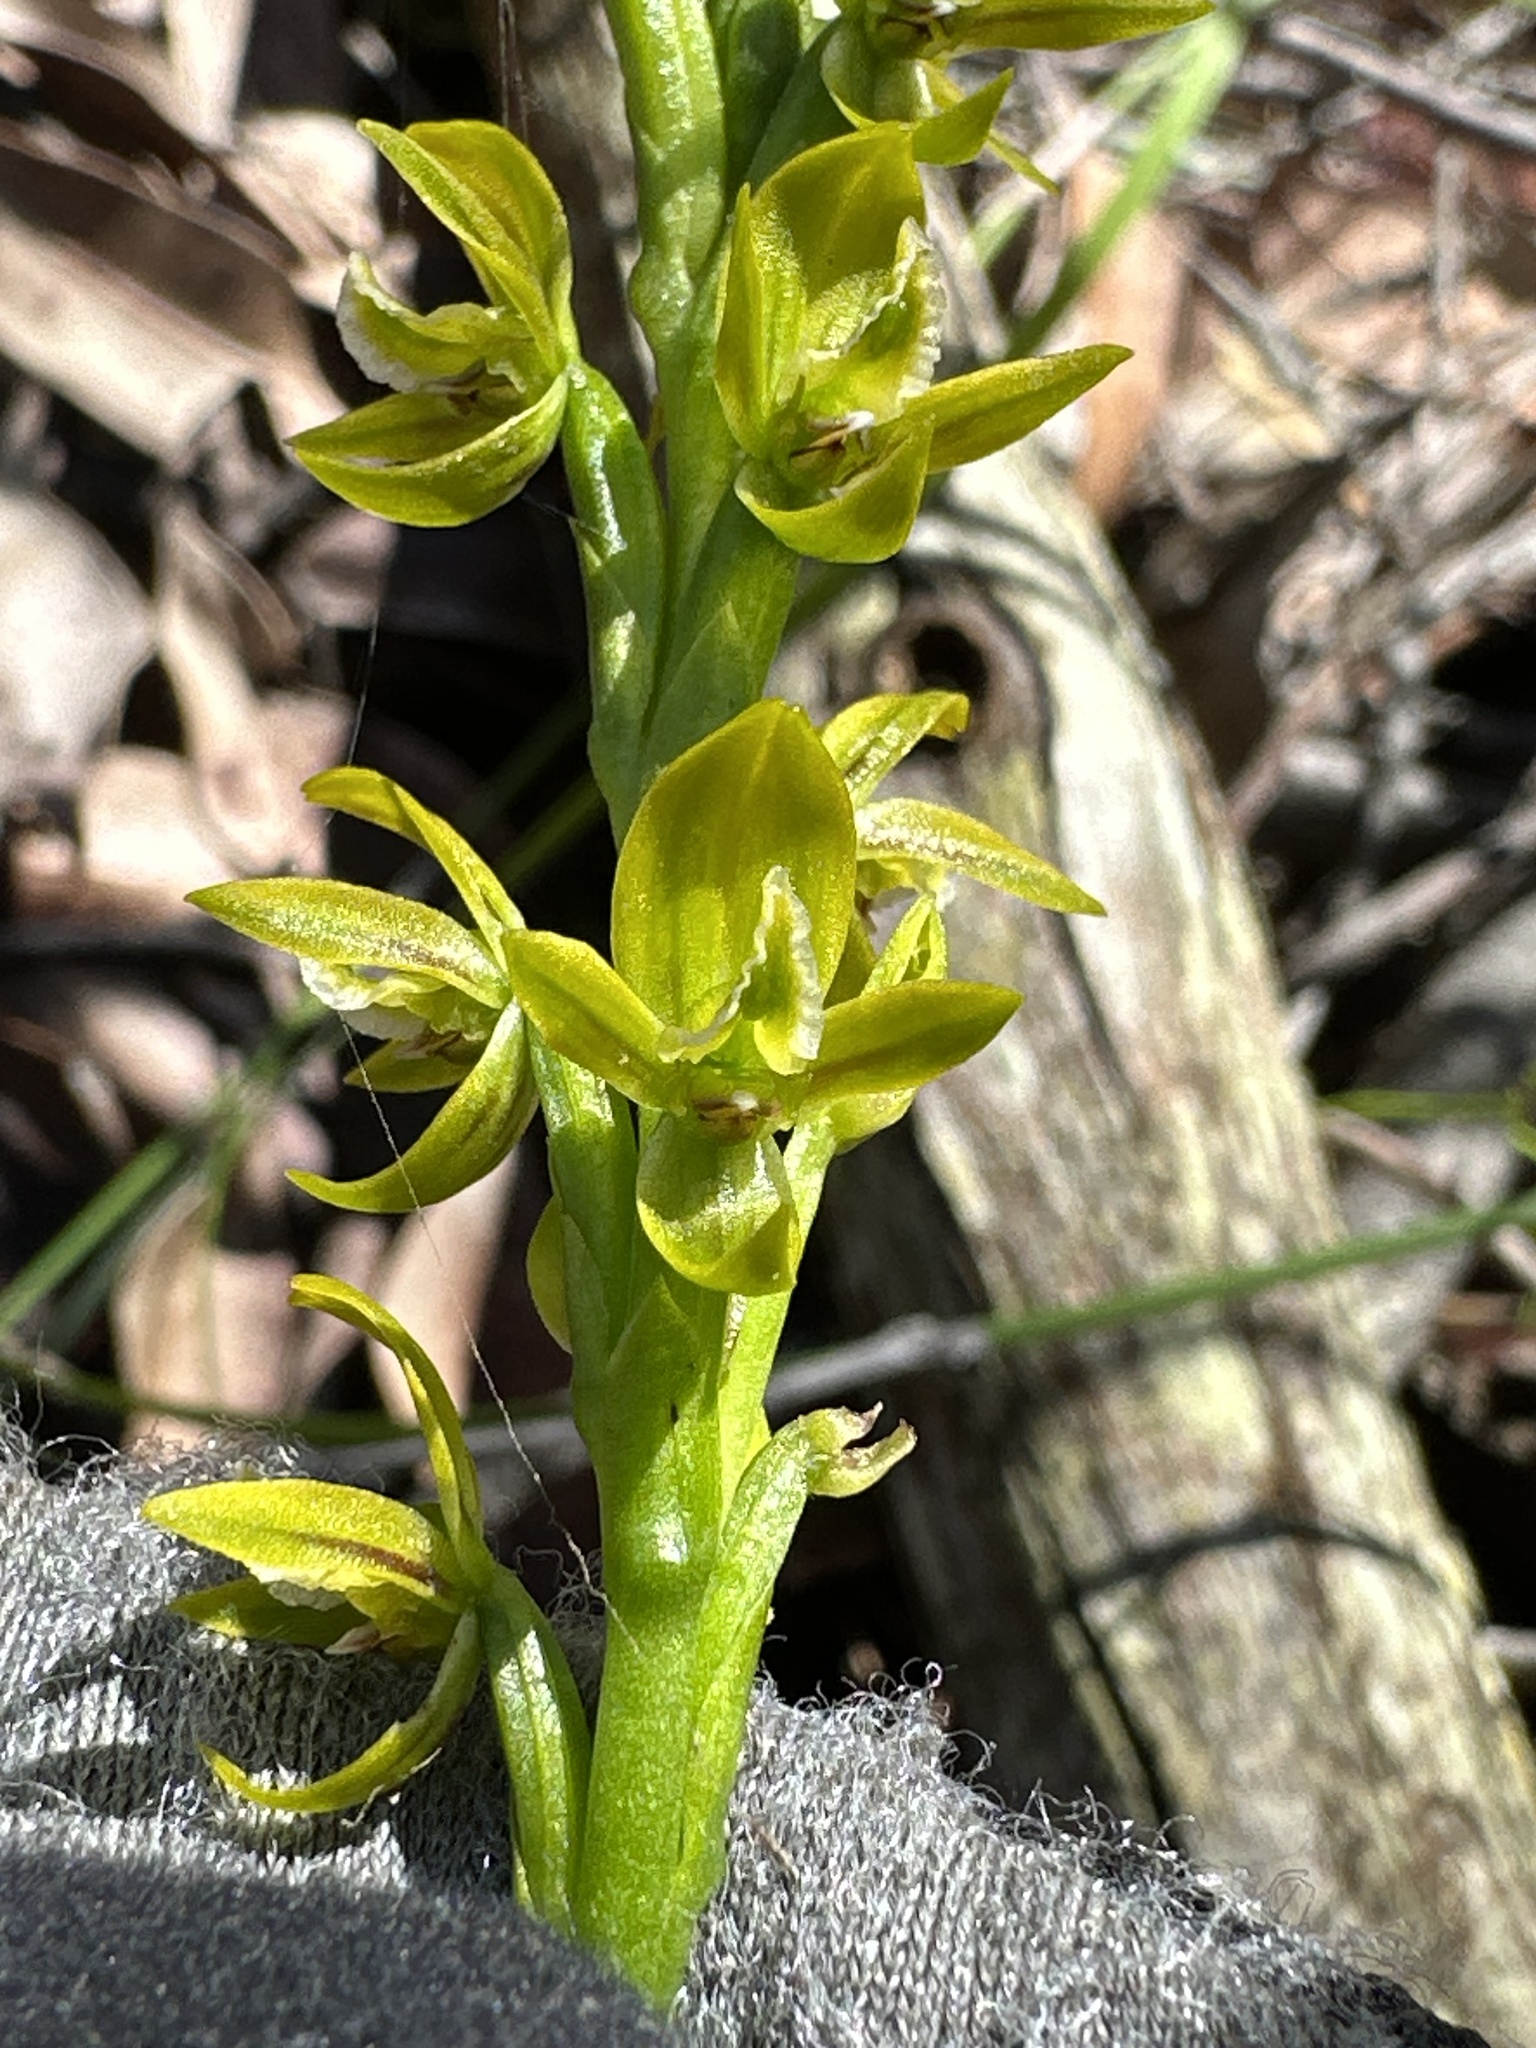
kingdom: Plantae
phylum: Tracheophyta
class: Liliopsida
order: Asparagales
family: Orchidaceae
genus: Prasophyllum
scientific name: Prasophyllum flavum
